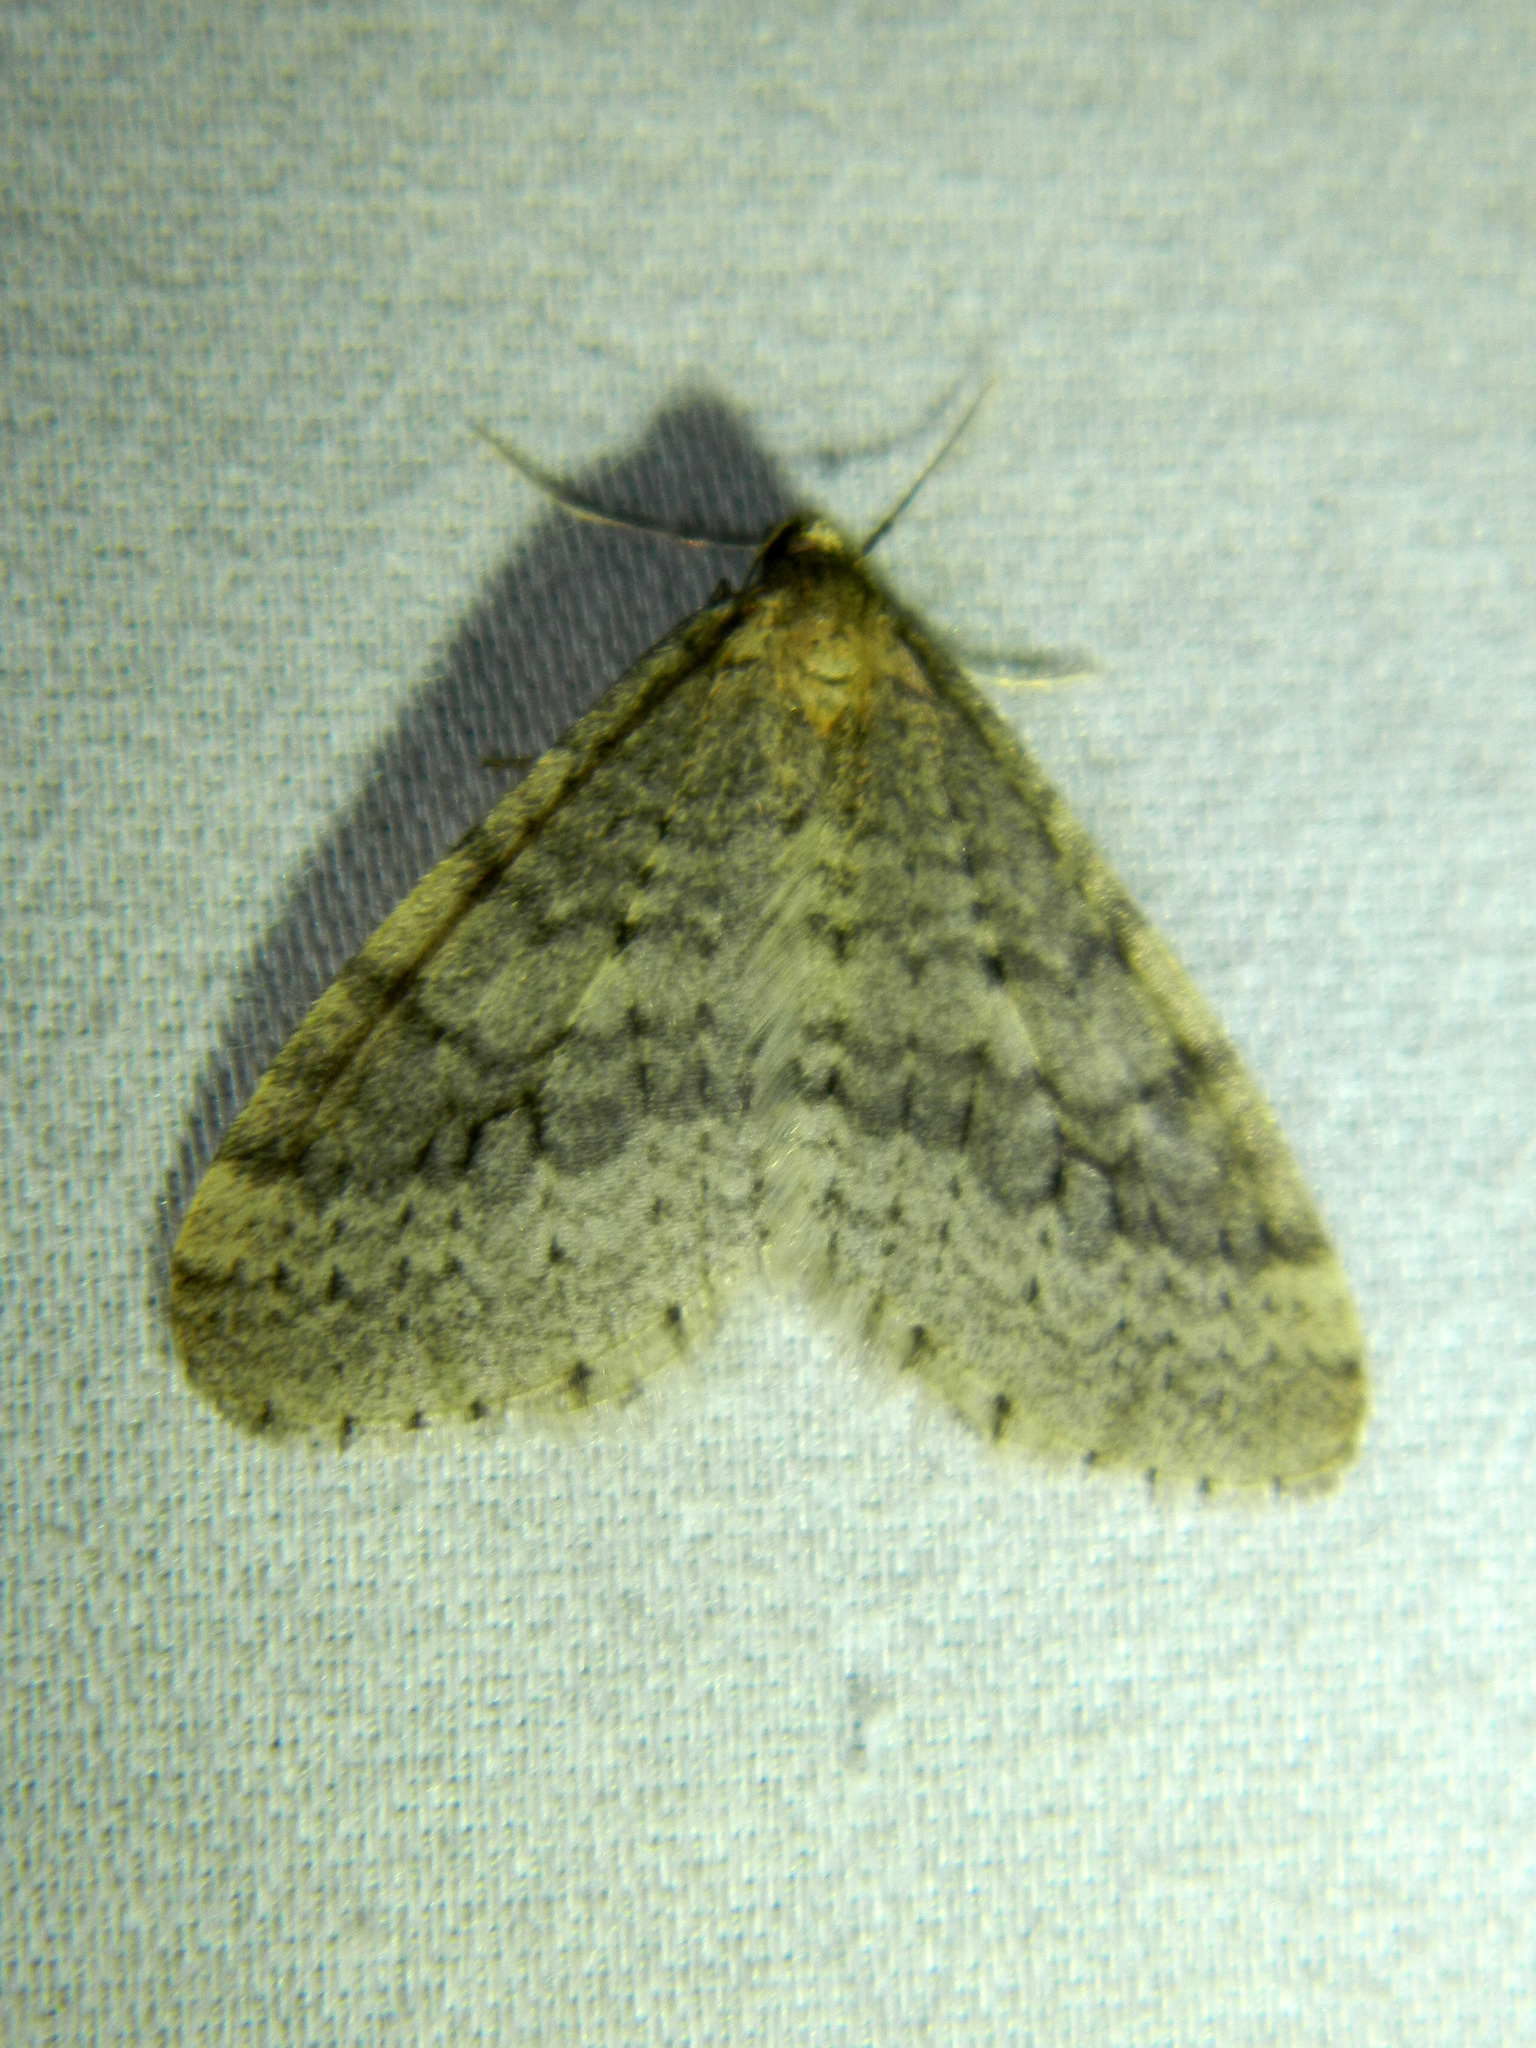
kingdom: Animalia
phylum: Arthropoda
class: Insecta
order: Lepidoptera
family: Geometridae
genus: Operophtera
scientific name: Operophtera bruceata
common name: Bruce spanworm
